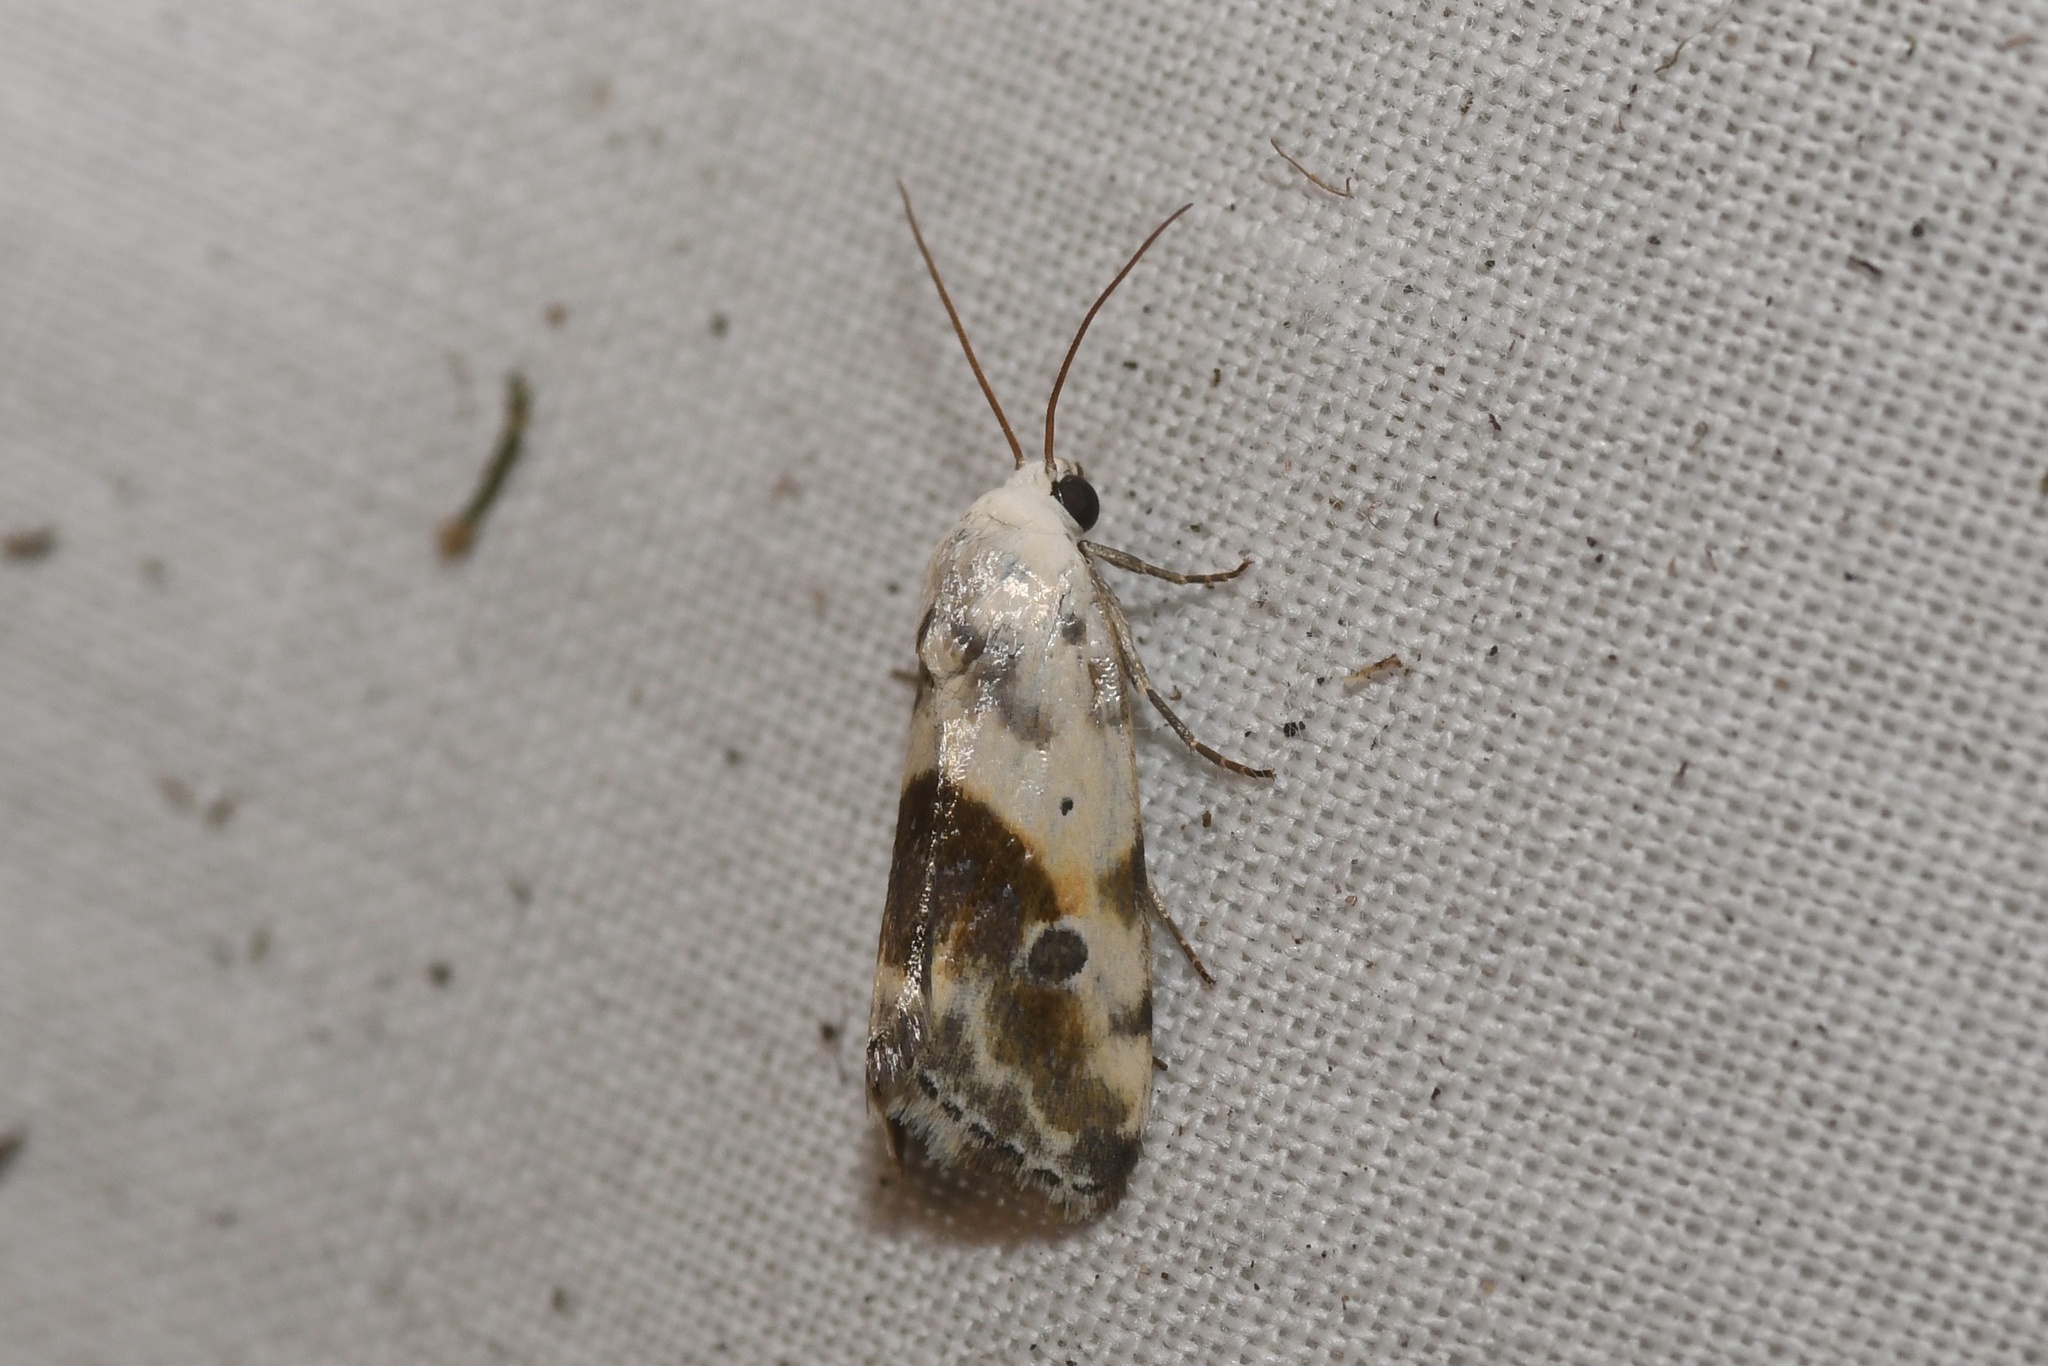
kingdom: Animalia
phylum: Arthropoda
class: Insecta
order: Lepidoptera
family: Noctuidae
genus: Acontia
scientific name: Acontia candefacta
